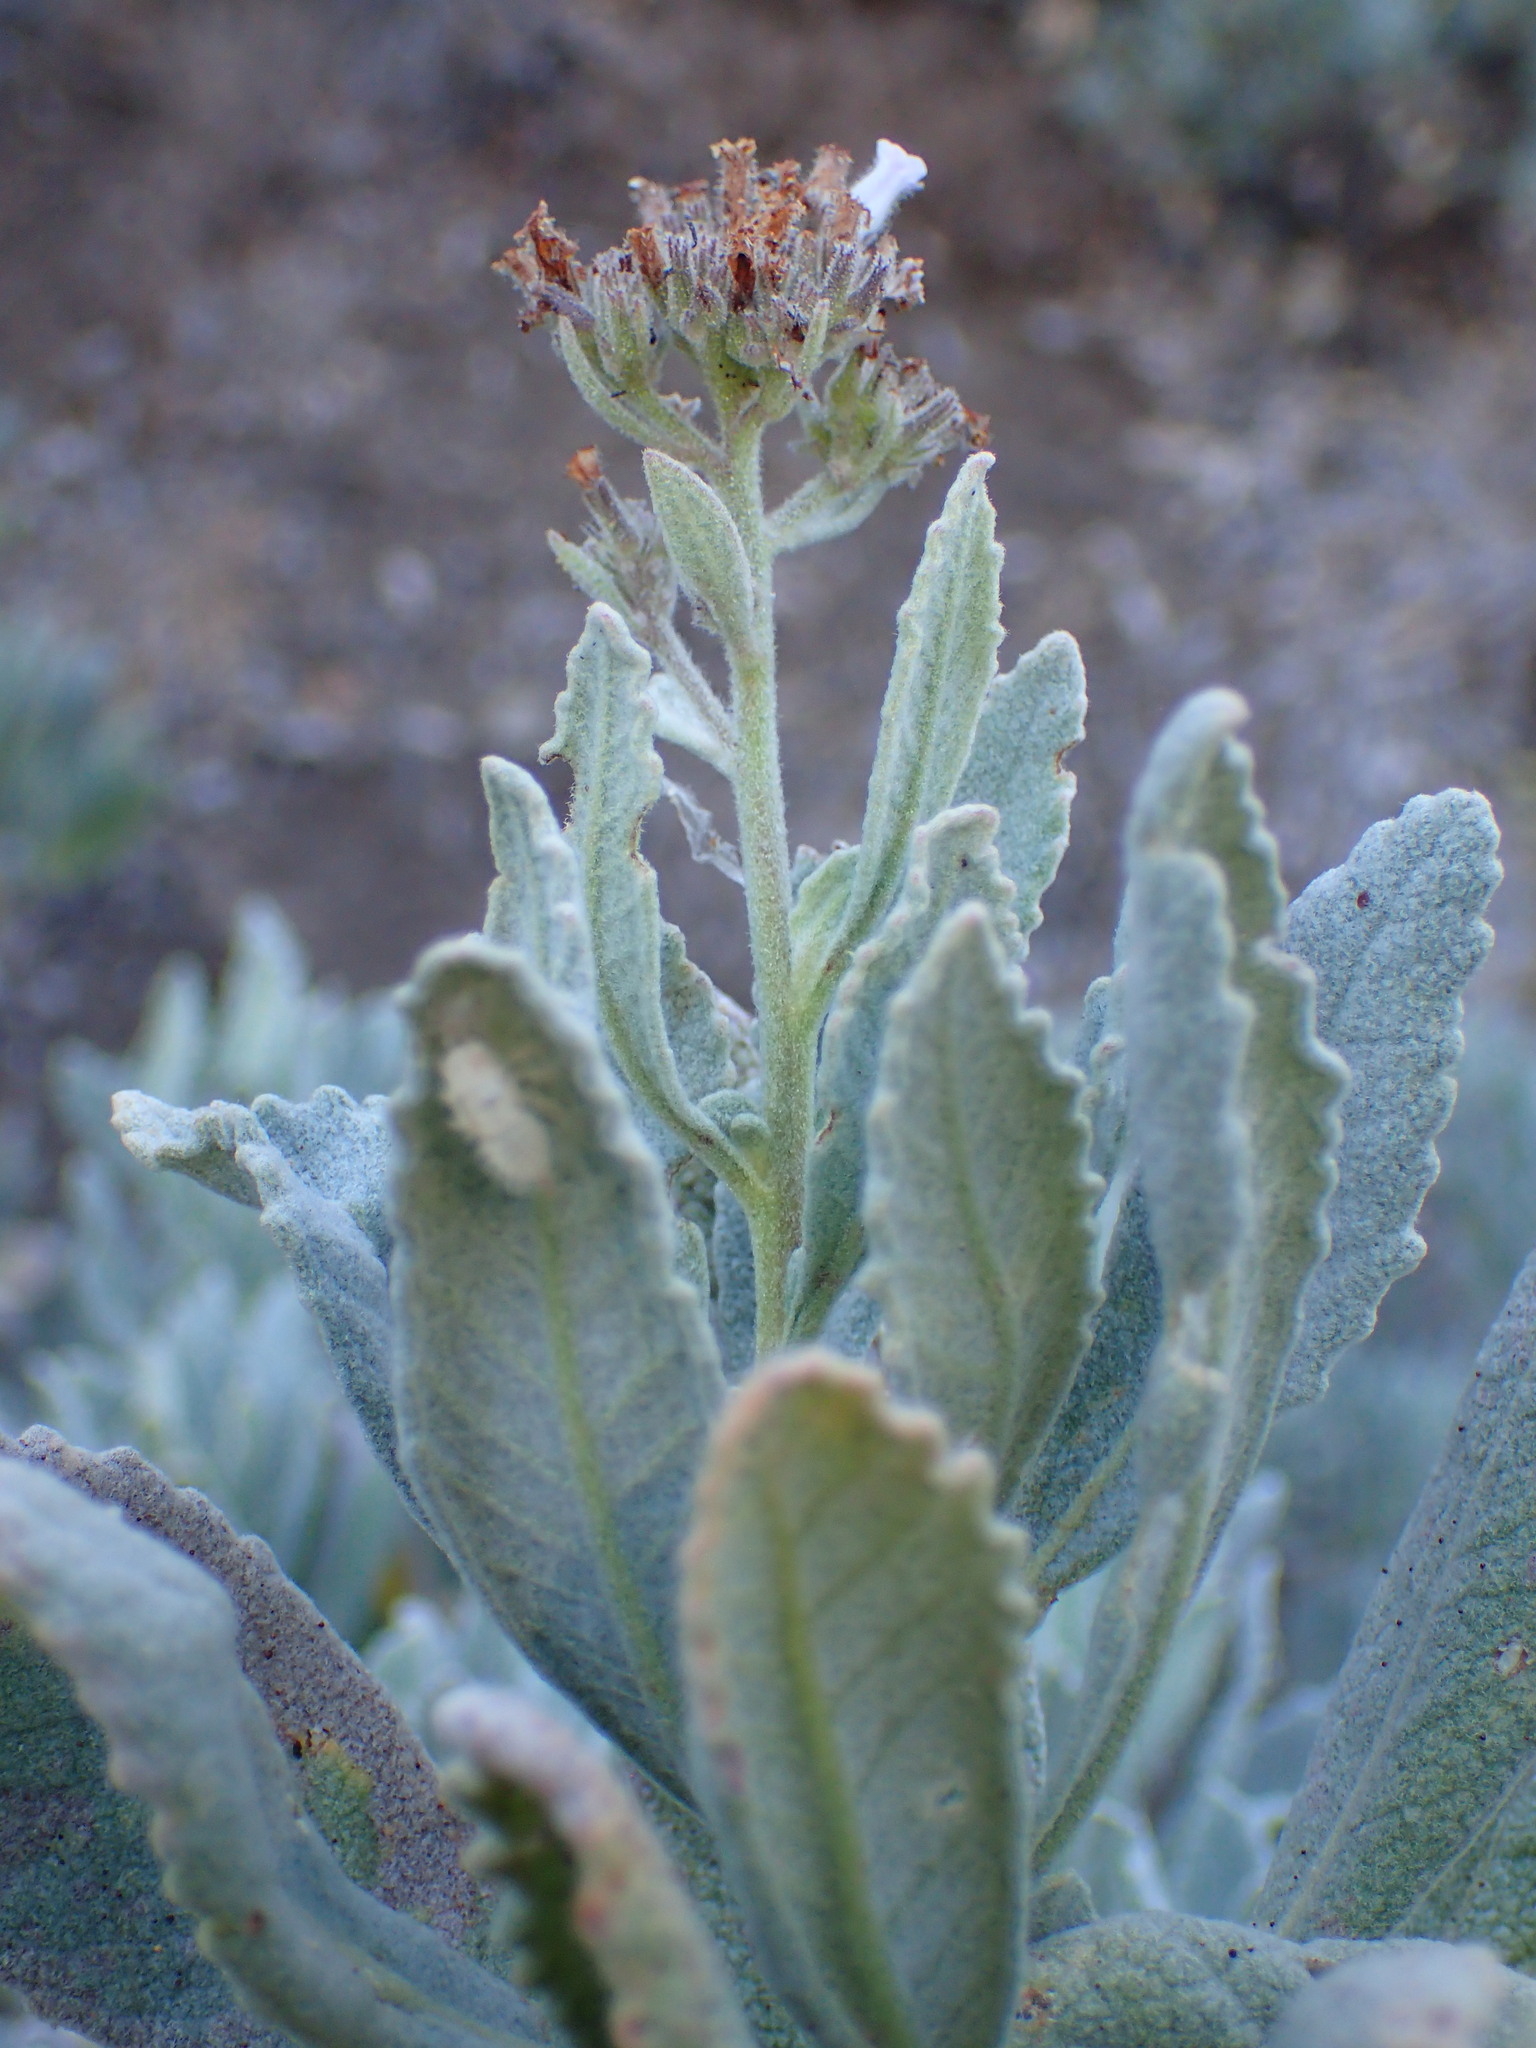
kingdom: Plantae
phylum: Tracheophyta
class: Magnoliopsida
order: Boraginales
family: Namaceae
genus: Eriodictyon
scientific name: Eriodictyon traskiae
